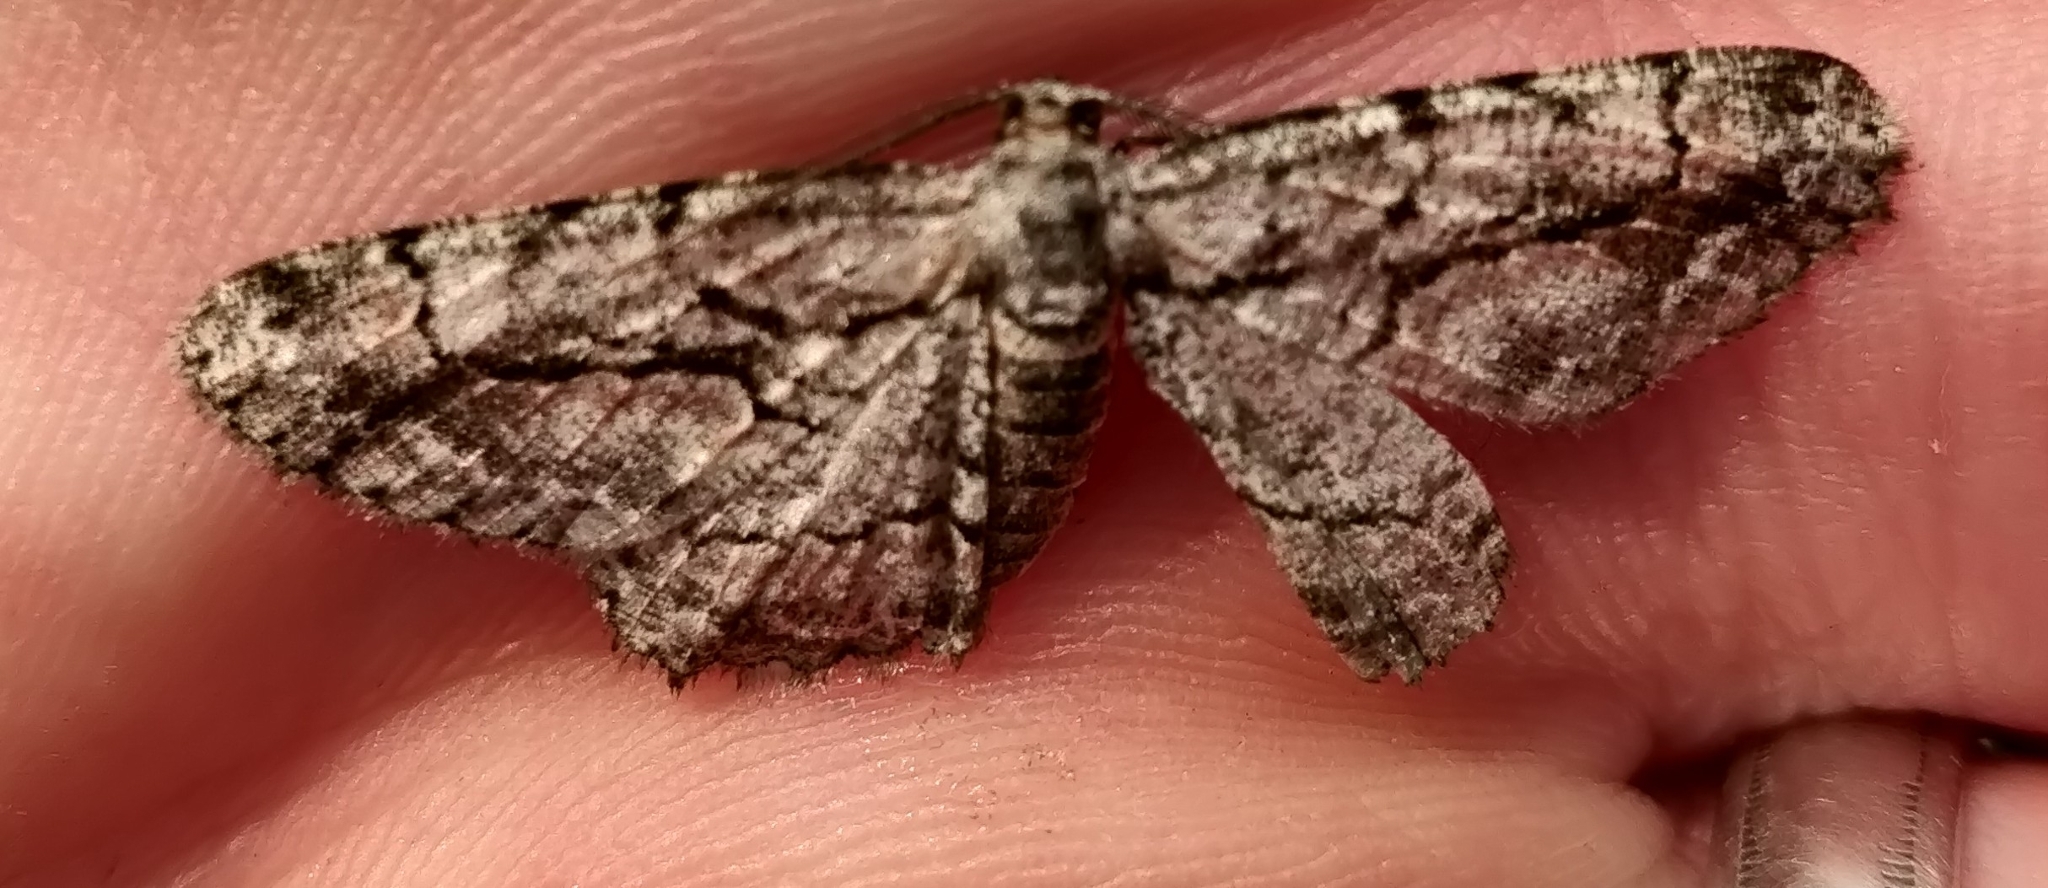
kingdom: Animalia
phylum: Arthropoda
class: Insecta
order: Lepidoptera
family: Geometridae
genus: Anavitrinella
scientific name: Anavitrinella pampinaria
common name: Common gray
